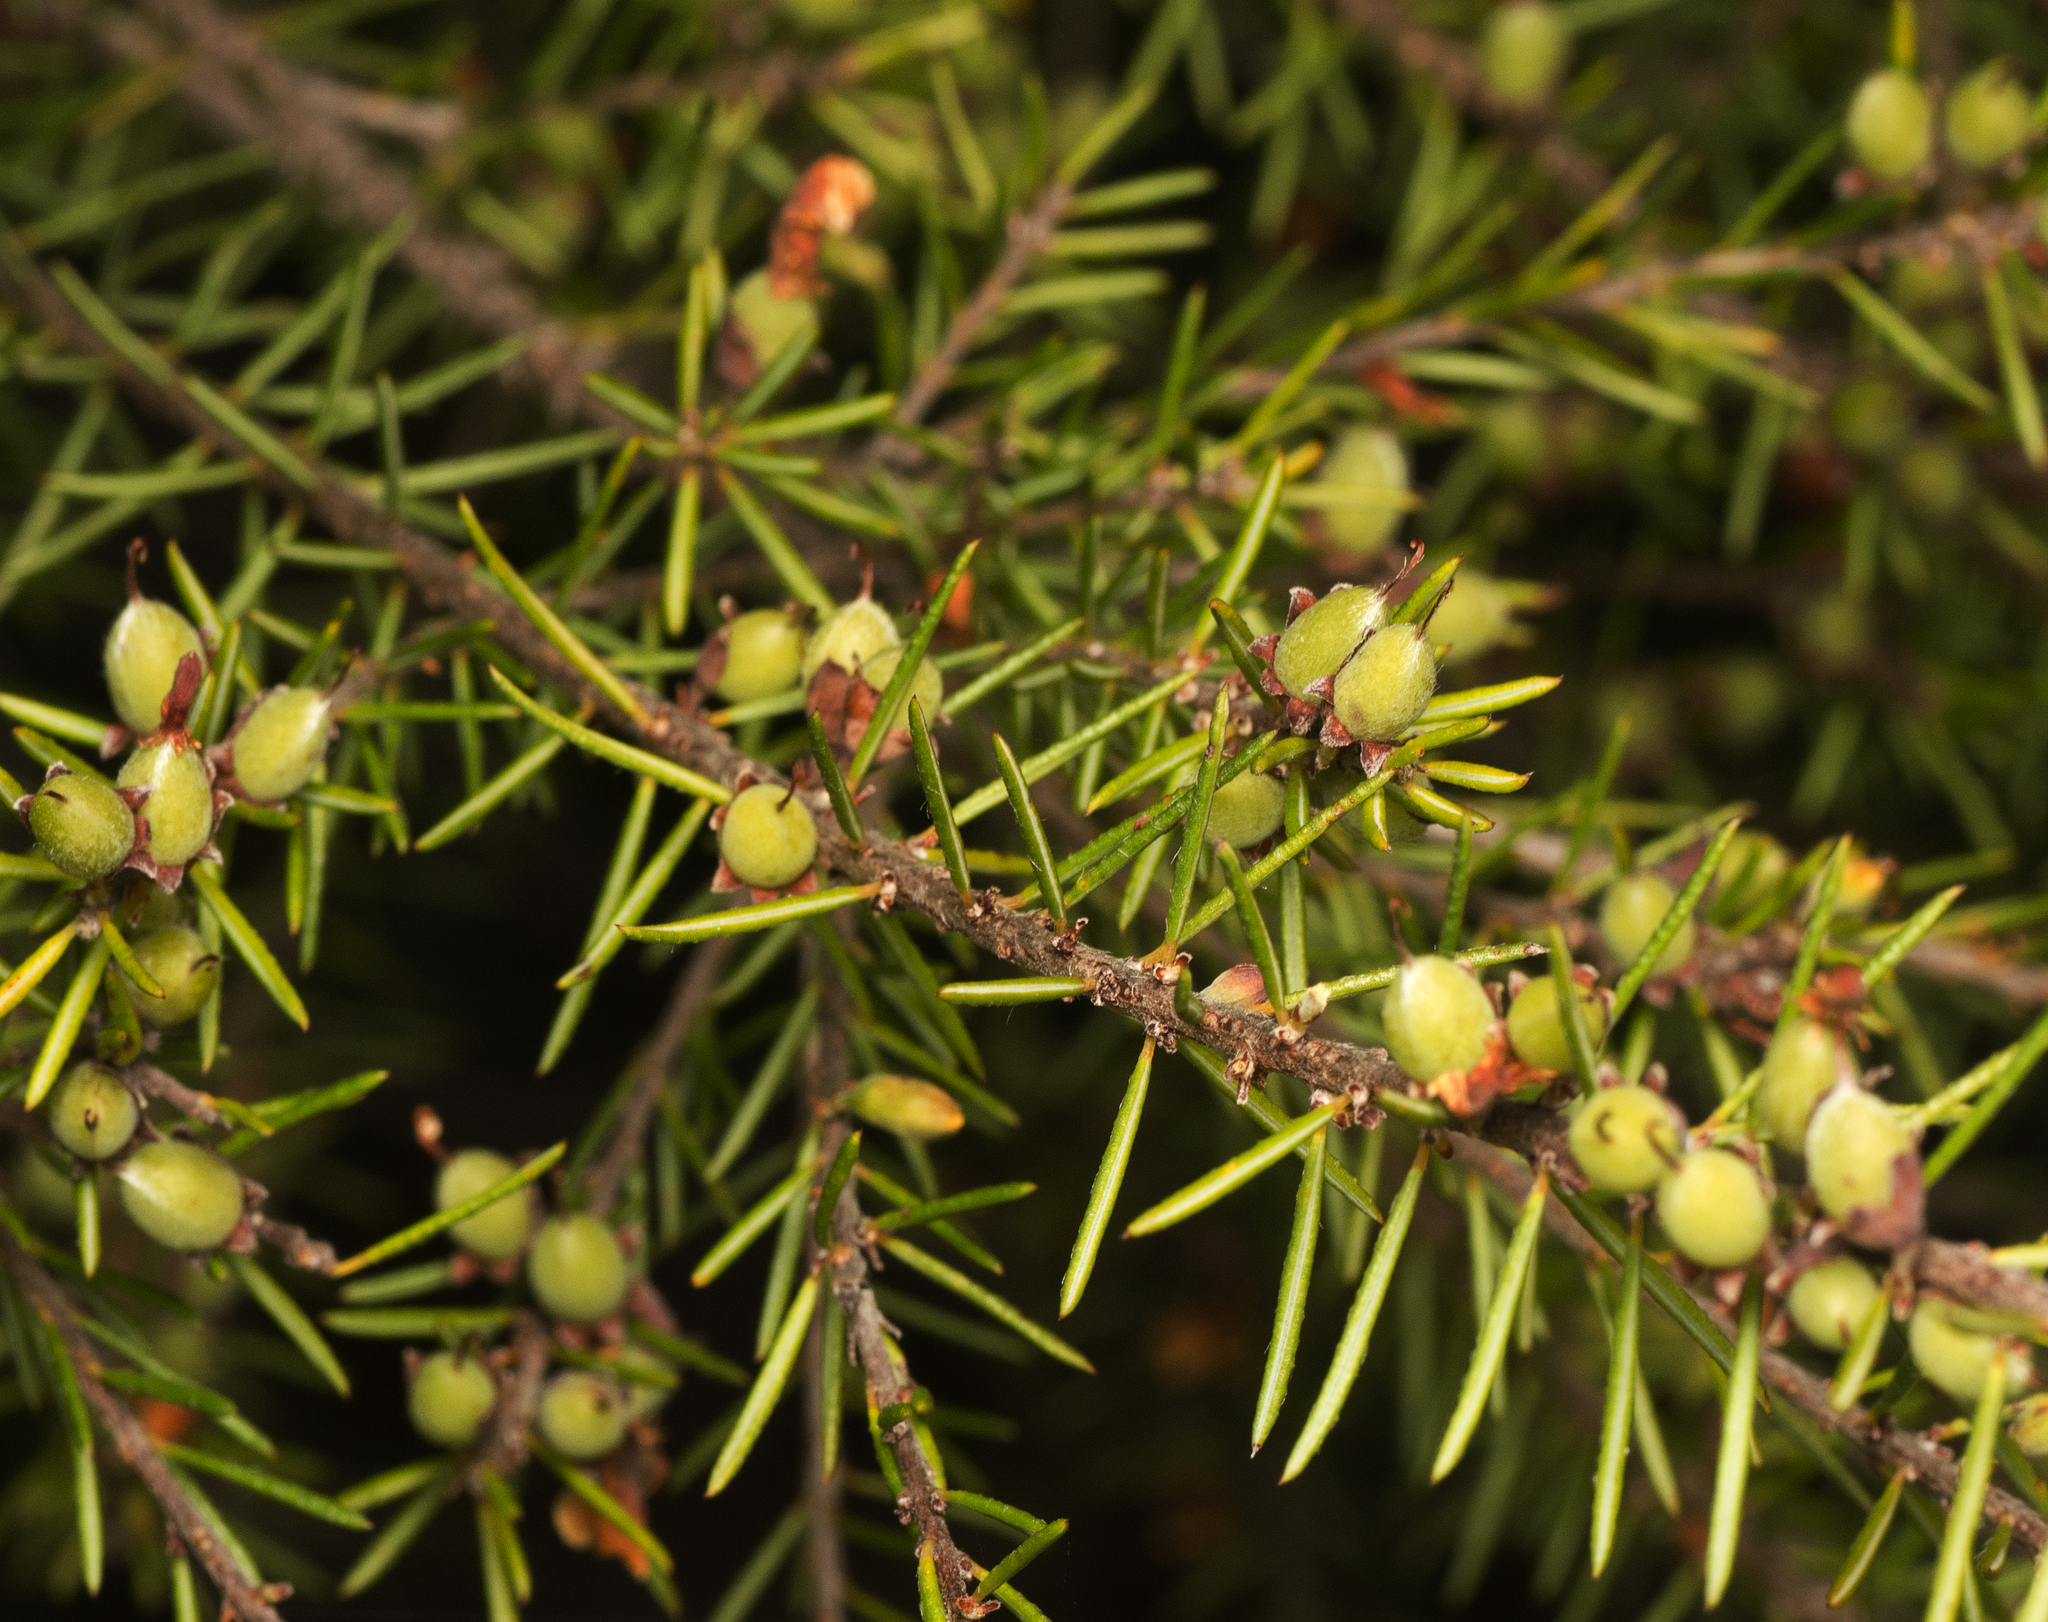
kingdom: Plantae
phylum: Tracheophyta
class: Magnoliopsida
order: Fabales
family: Fabaceae
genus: Dillwynia
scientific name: Dillwynia floribunda
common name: Eggs-and-bacon
